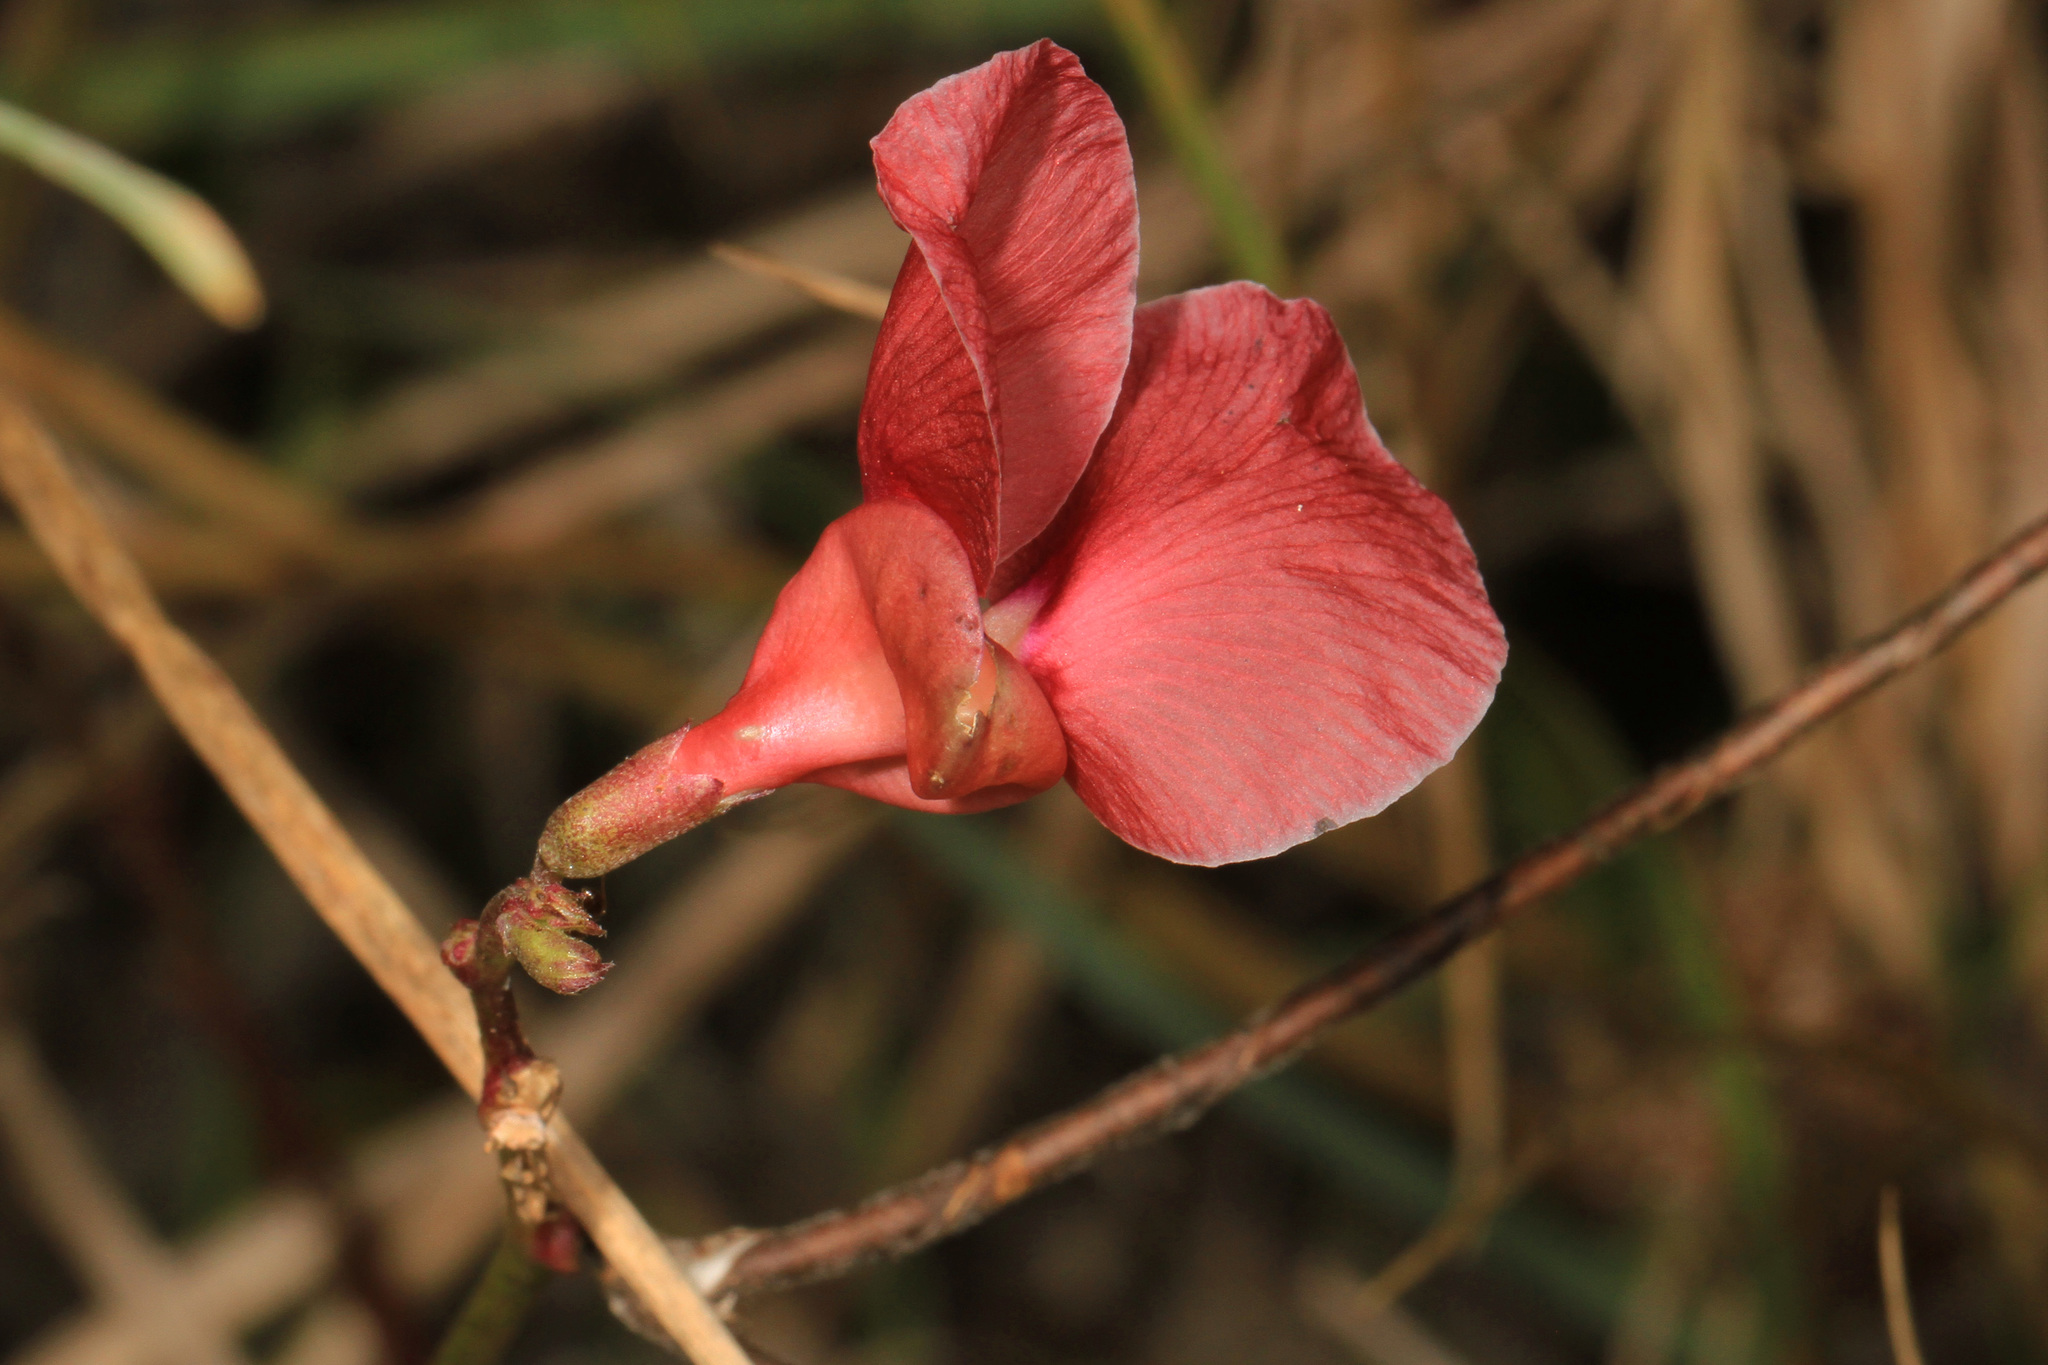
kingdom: Plantae
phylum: Tracheophyta
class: Magnoliopsida
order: Fabales
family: Fabaceae
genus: Macroptilium
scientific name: Macroptilium lathyroides
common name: Wild bushbean
